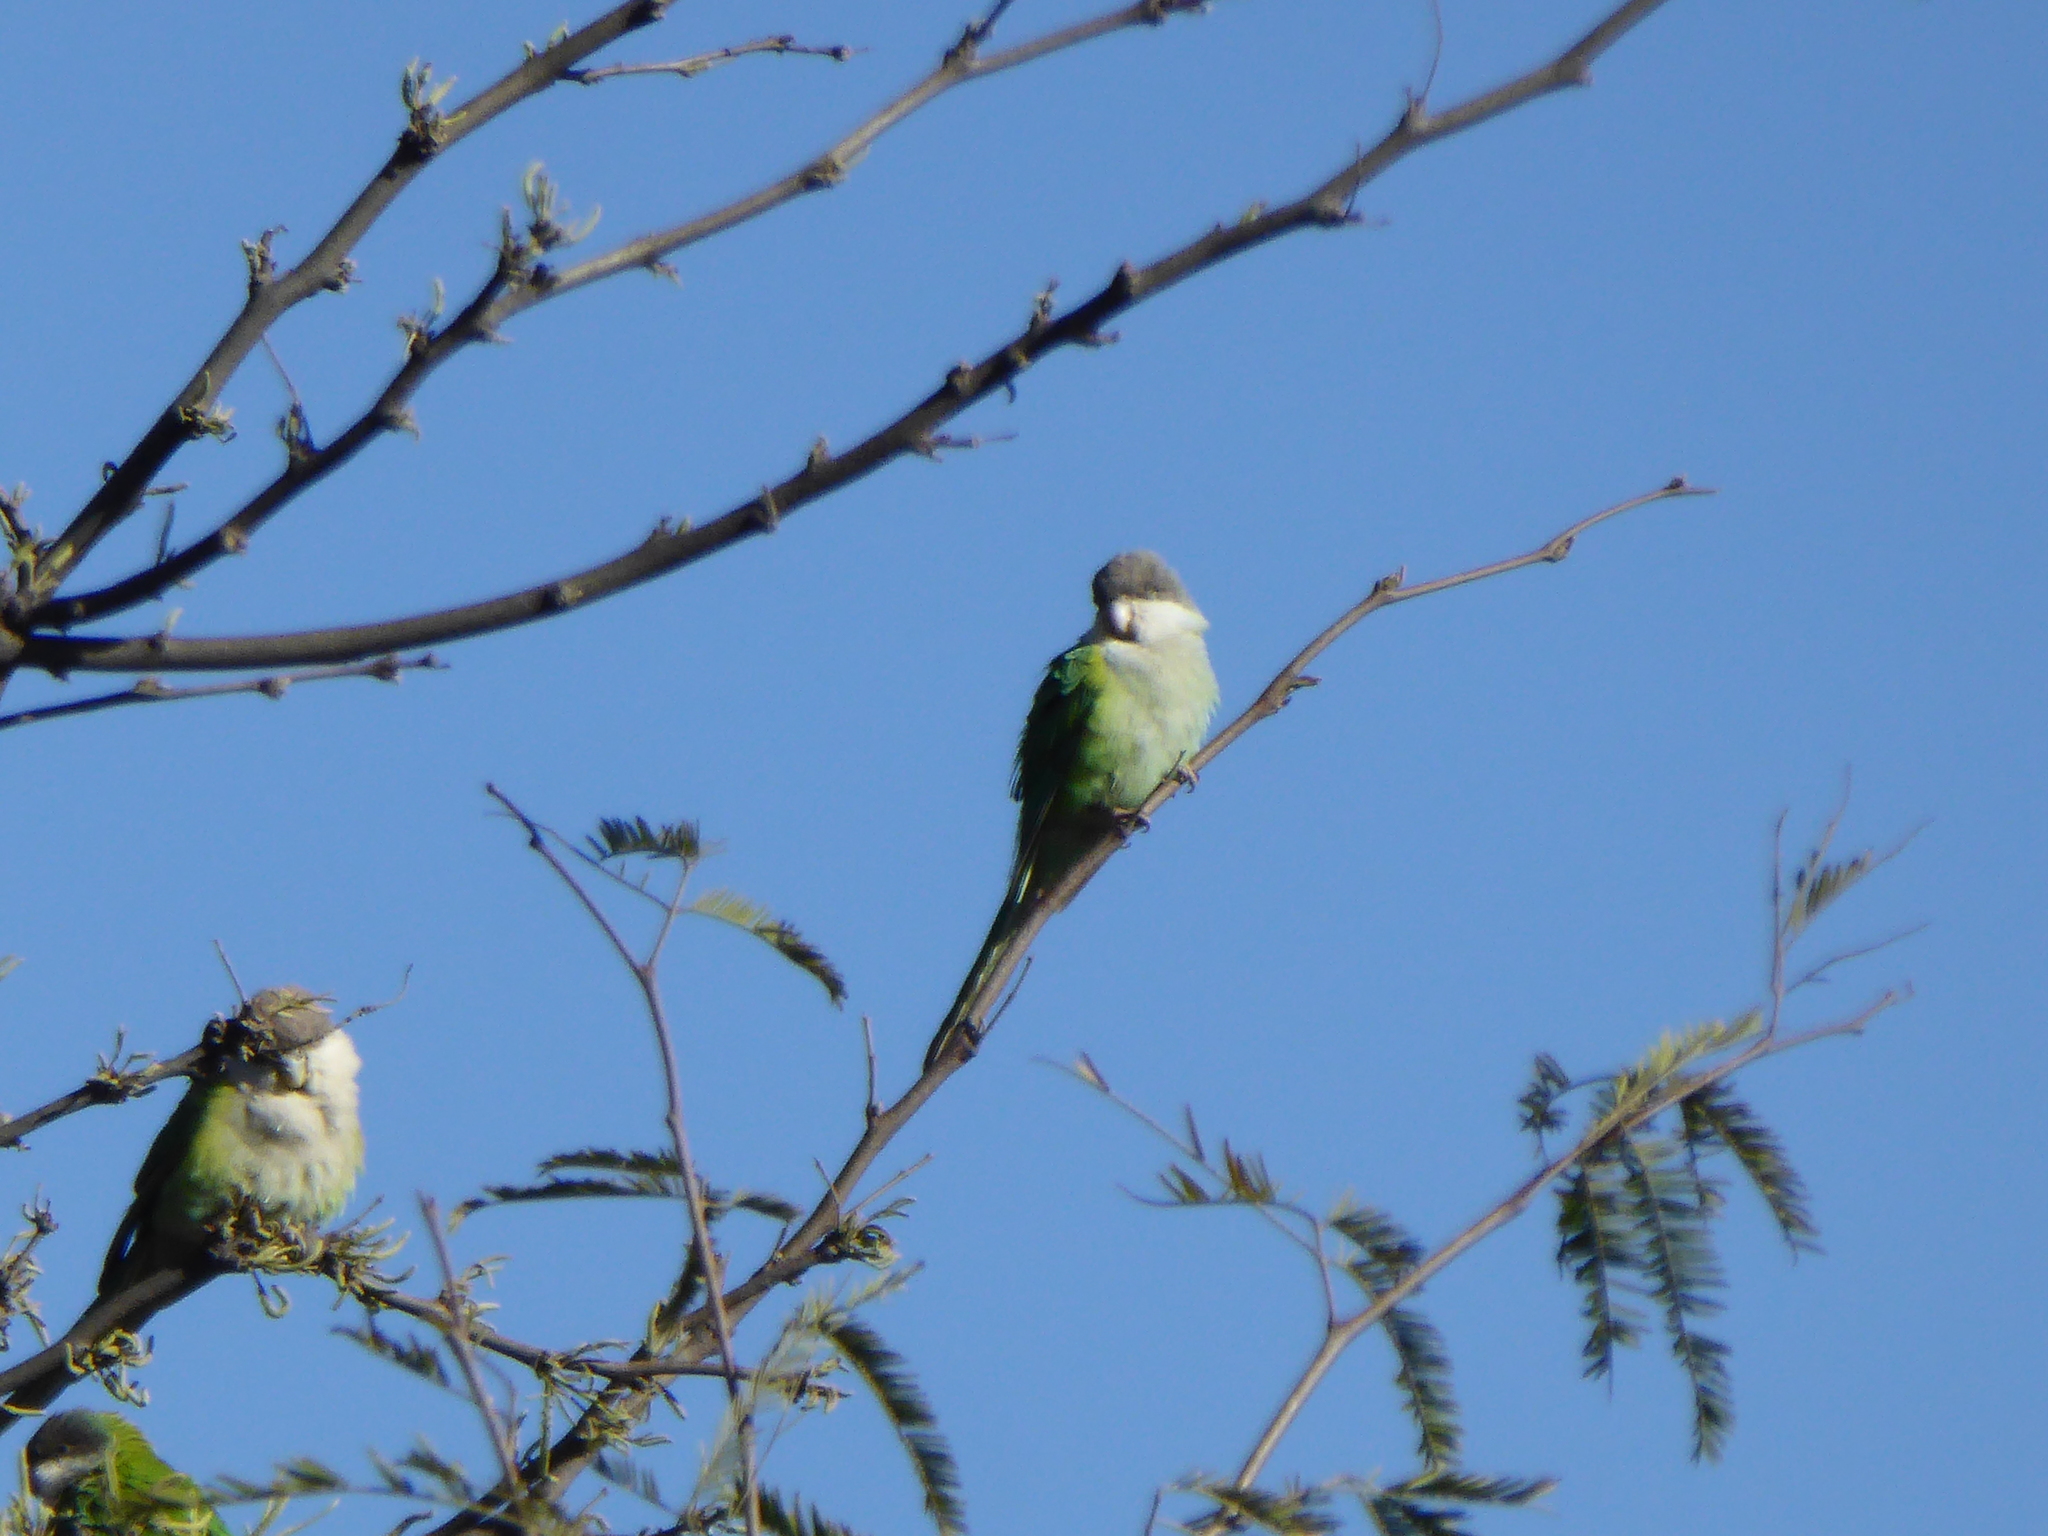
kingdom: Animalia
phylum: Chordata
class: Aves
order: Psittaciformes
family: Psittacidae
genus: Psilopsiagon
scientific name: Psilopsiagon aymara
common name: Grey-hooded parakeet
